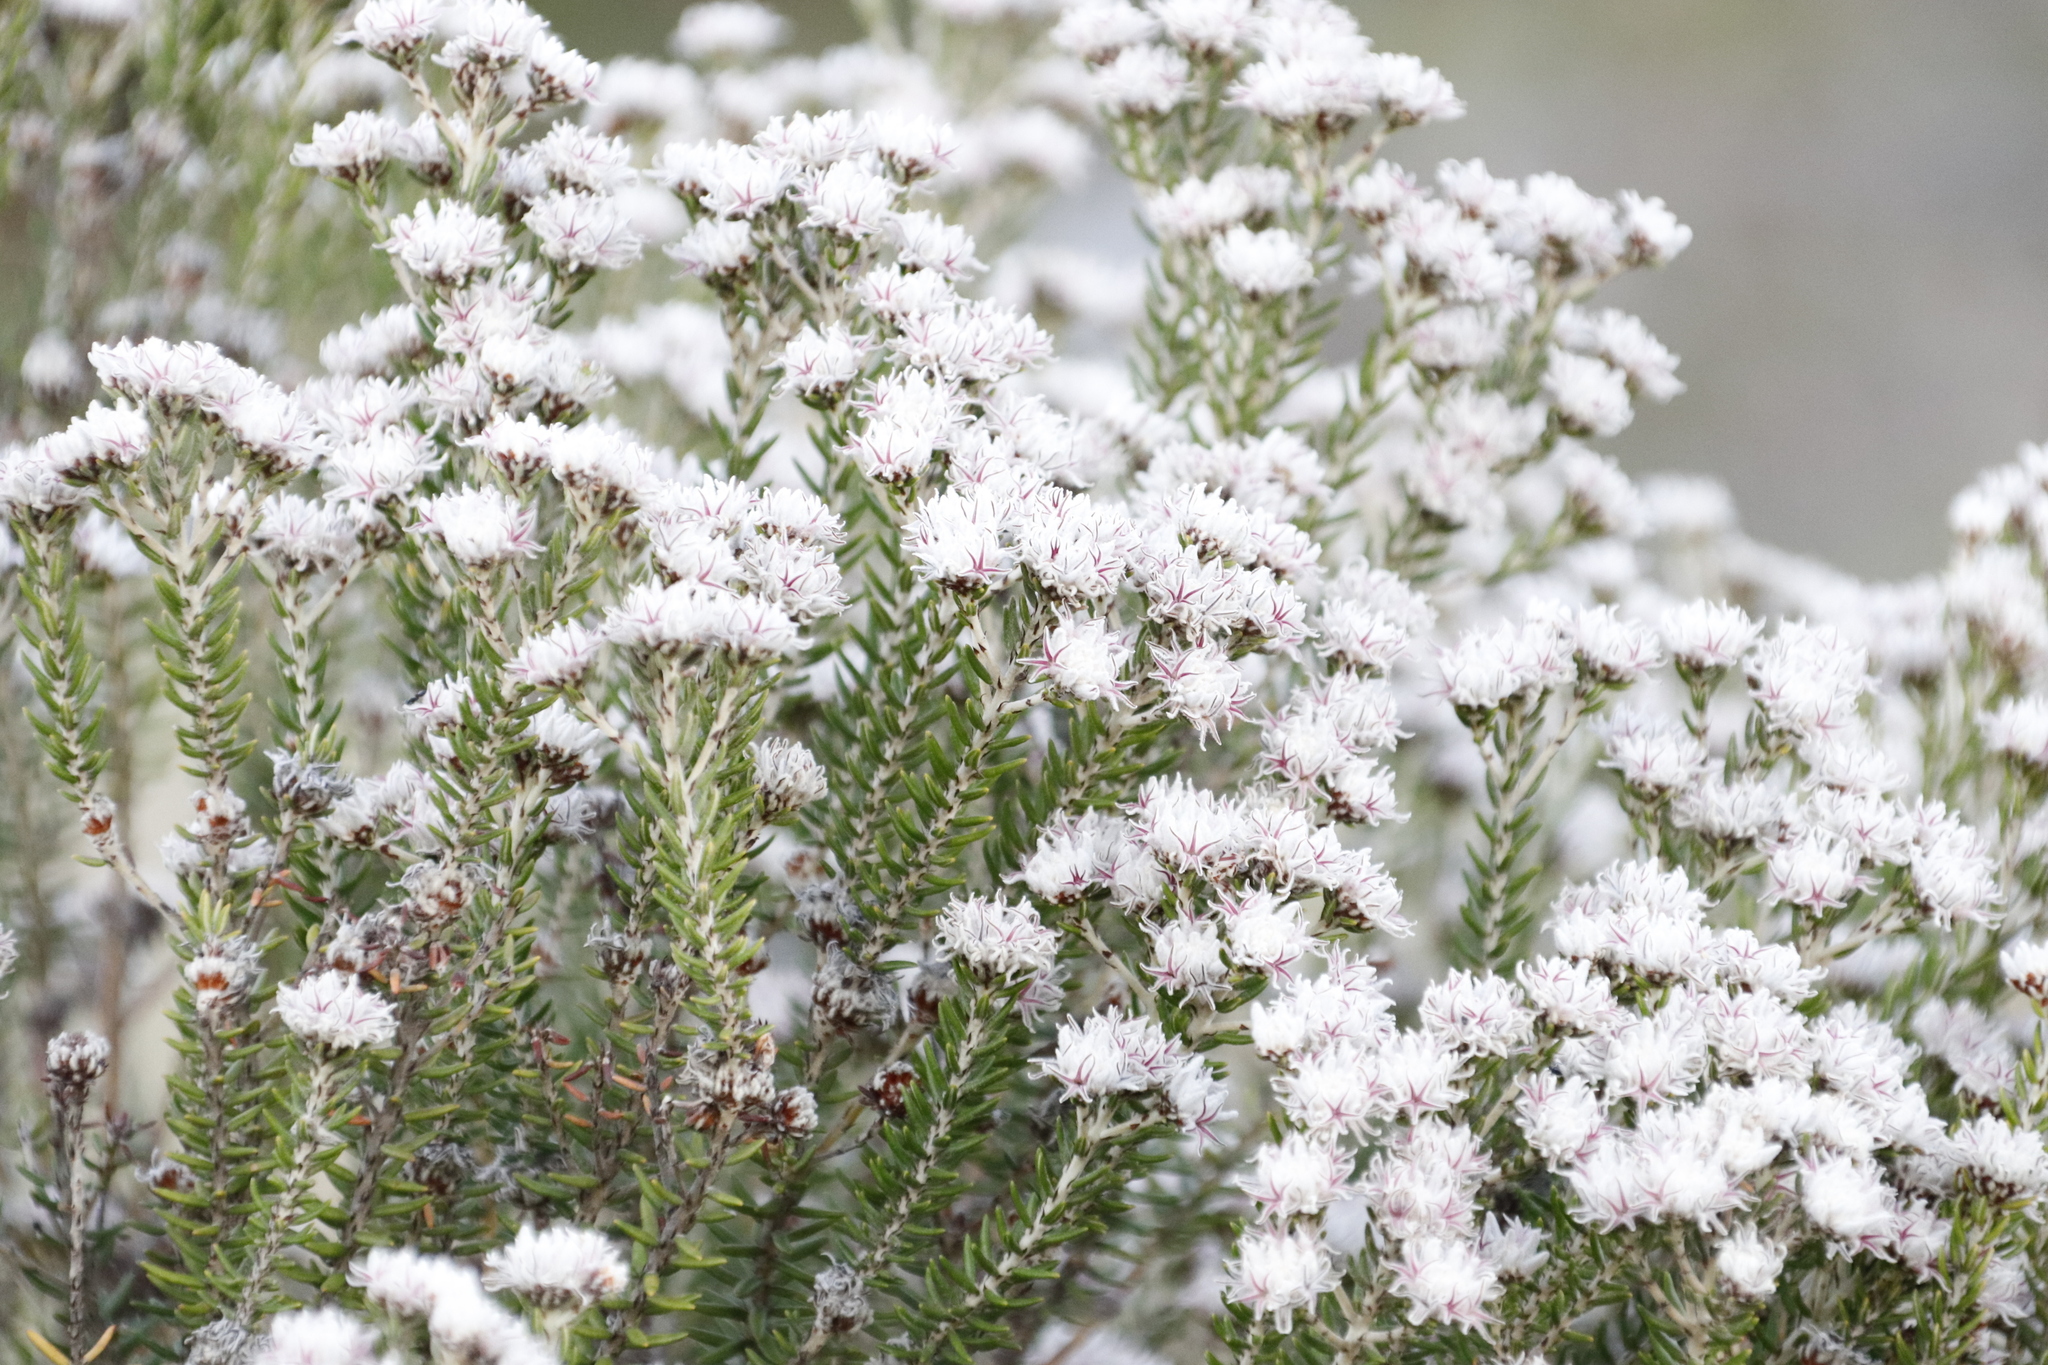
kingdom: Plantae
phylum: Tracheophyta
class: Magnoliopsida
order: Rosales
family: Rhamnaceae
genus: Trichocephalus
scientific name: Trichocephalus stipularis
